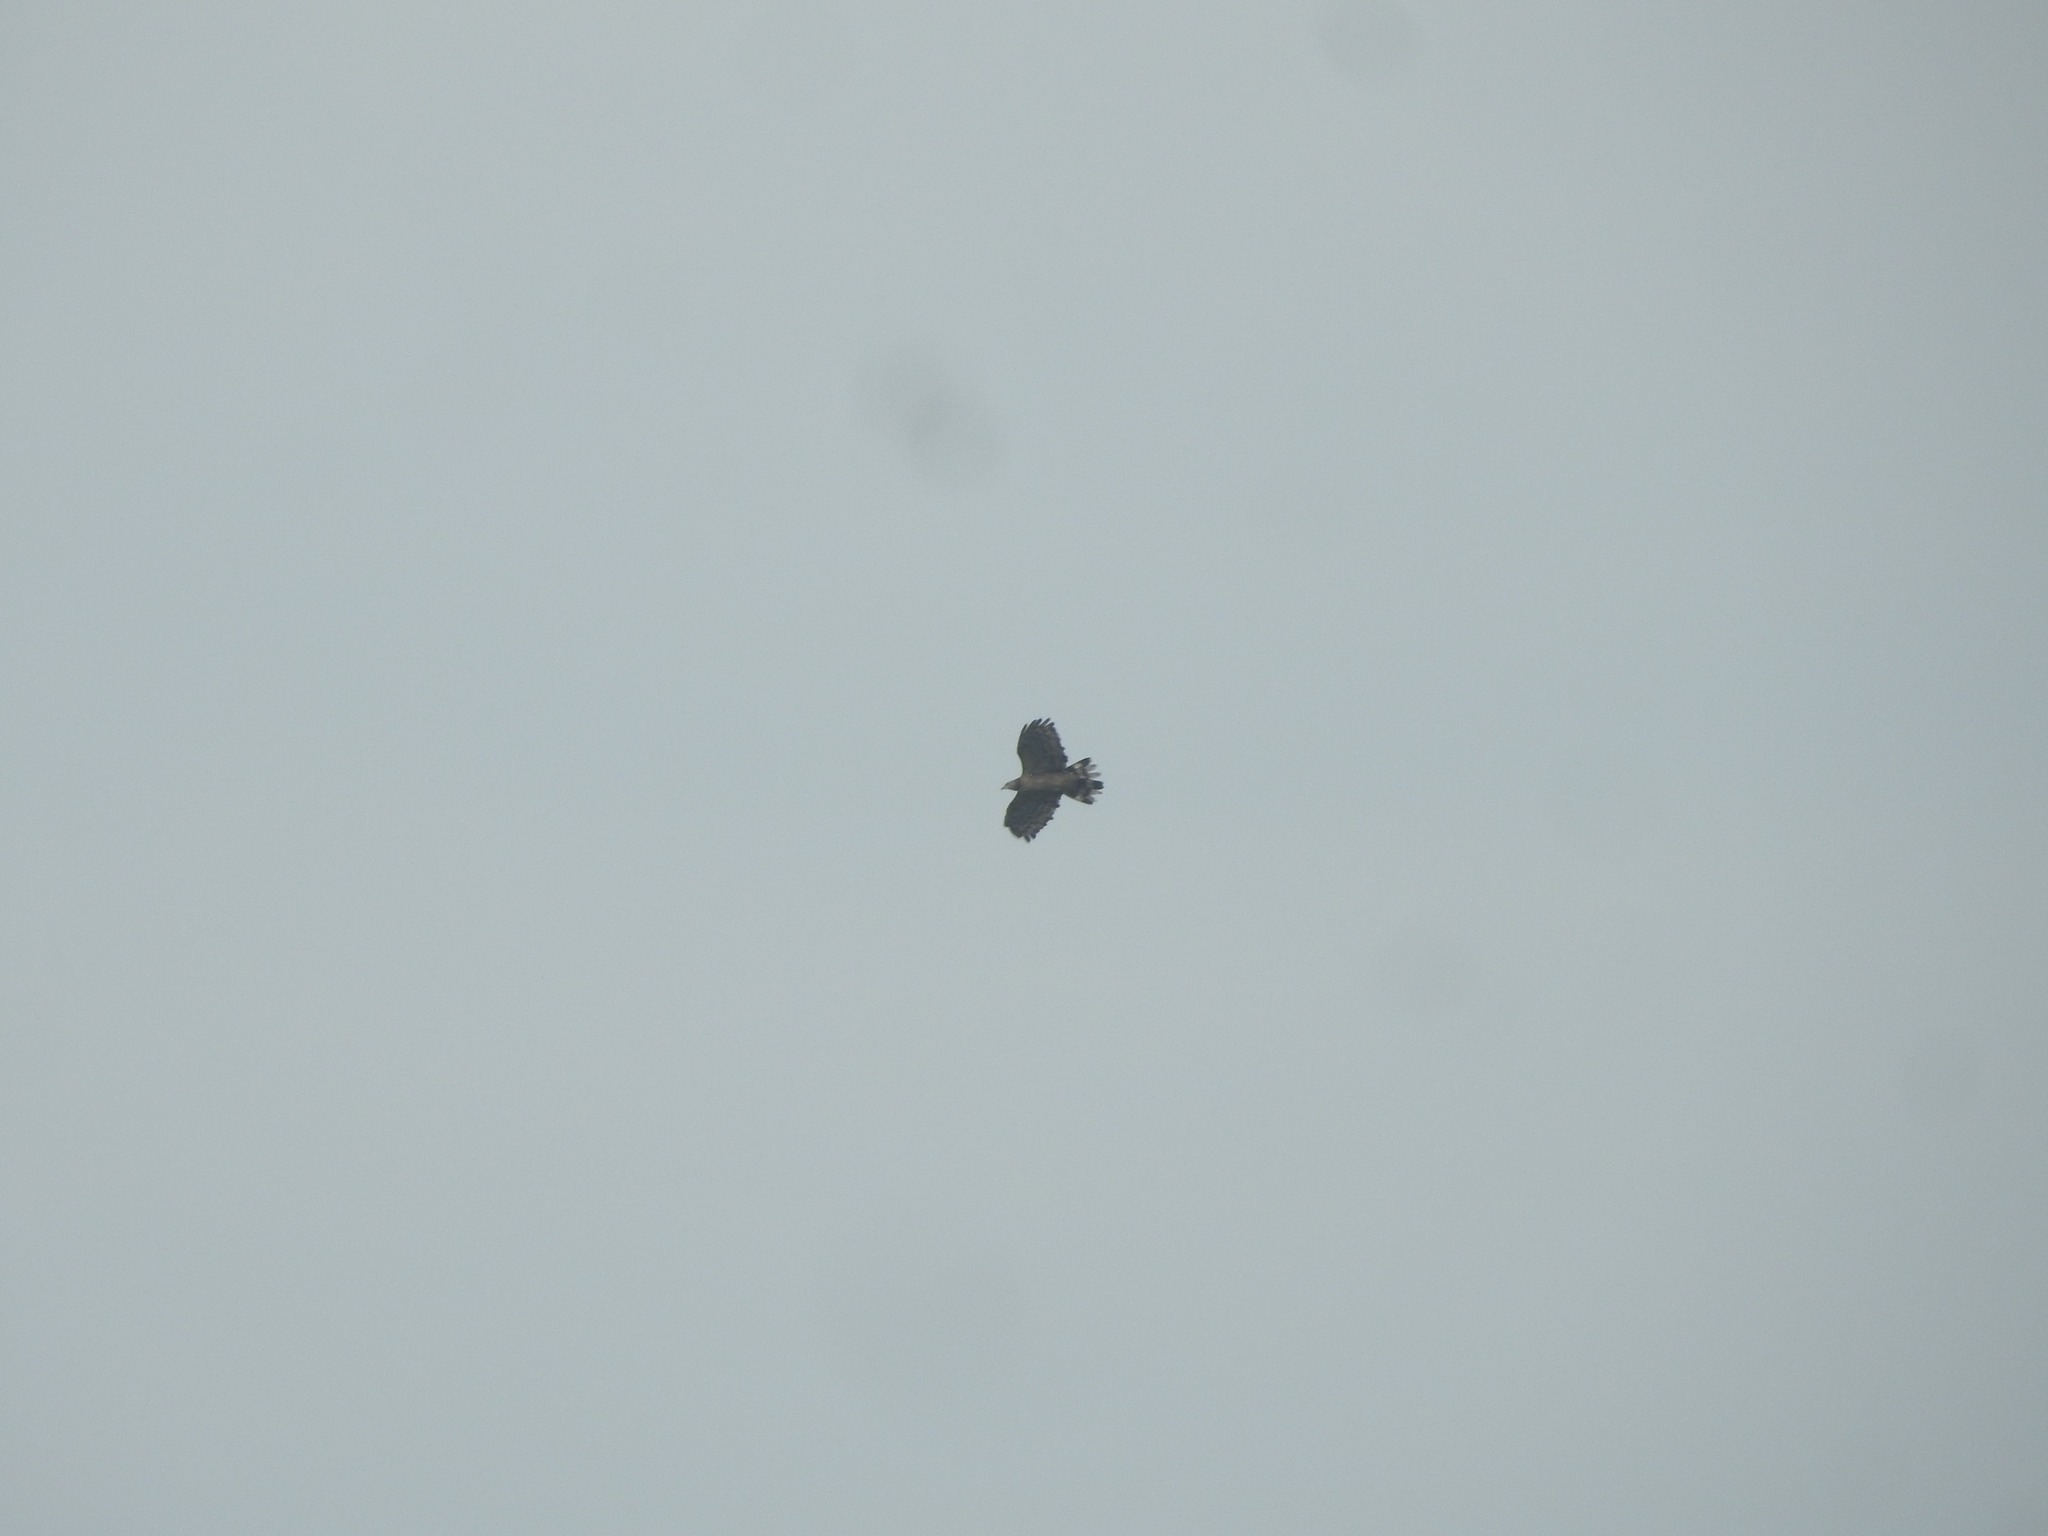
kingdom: Animalia
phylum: Chordata
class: Aves
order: Accipitriformes
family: Accipitridae
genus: Pernis
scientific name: Pernis ptilorhynchus
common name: Crested honey buzzard
